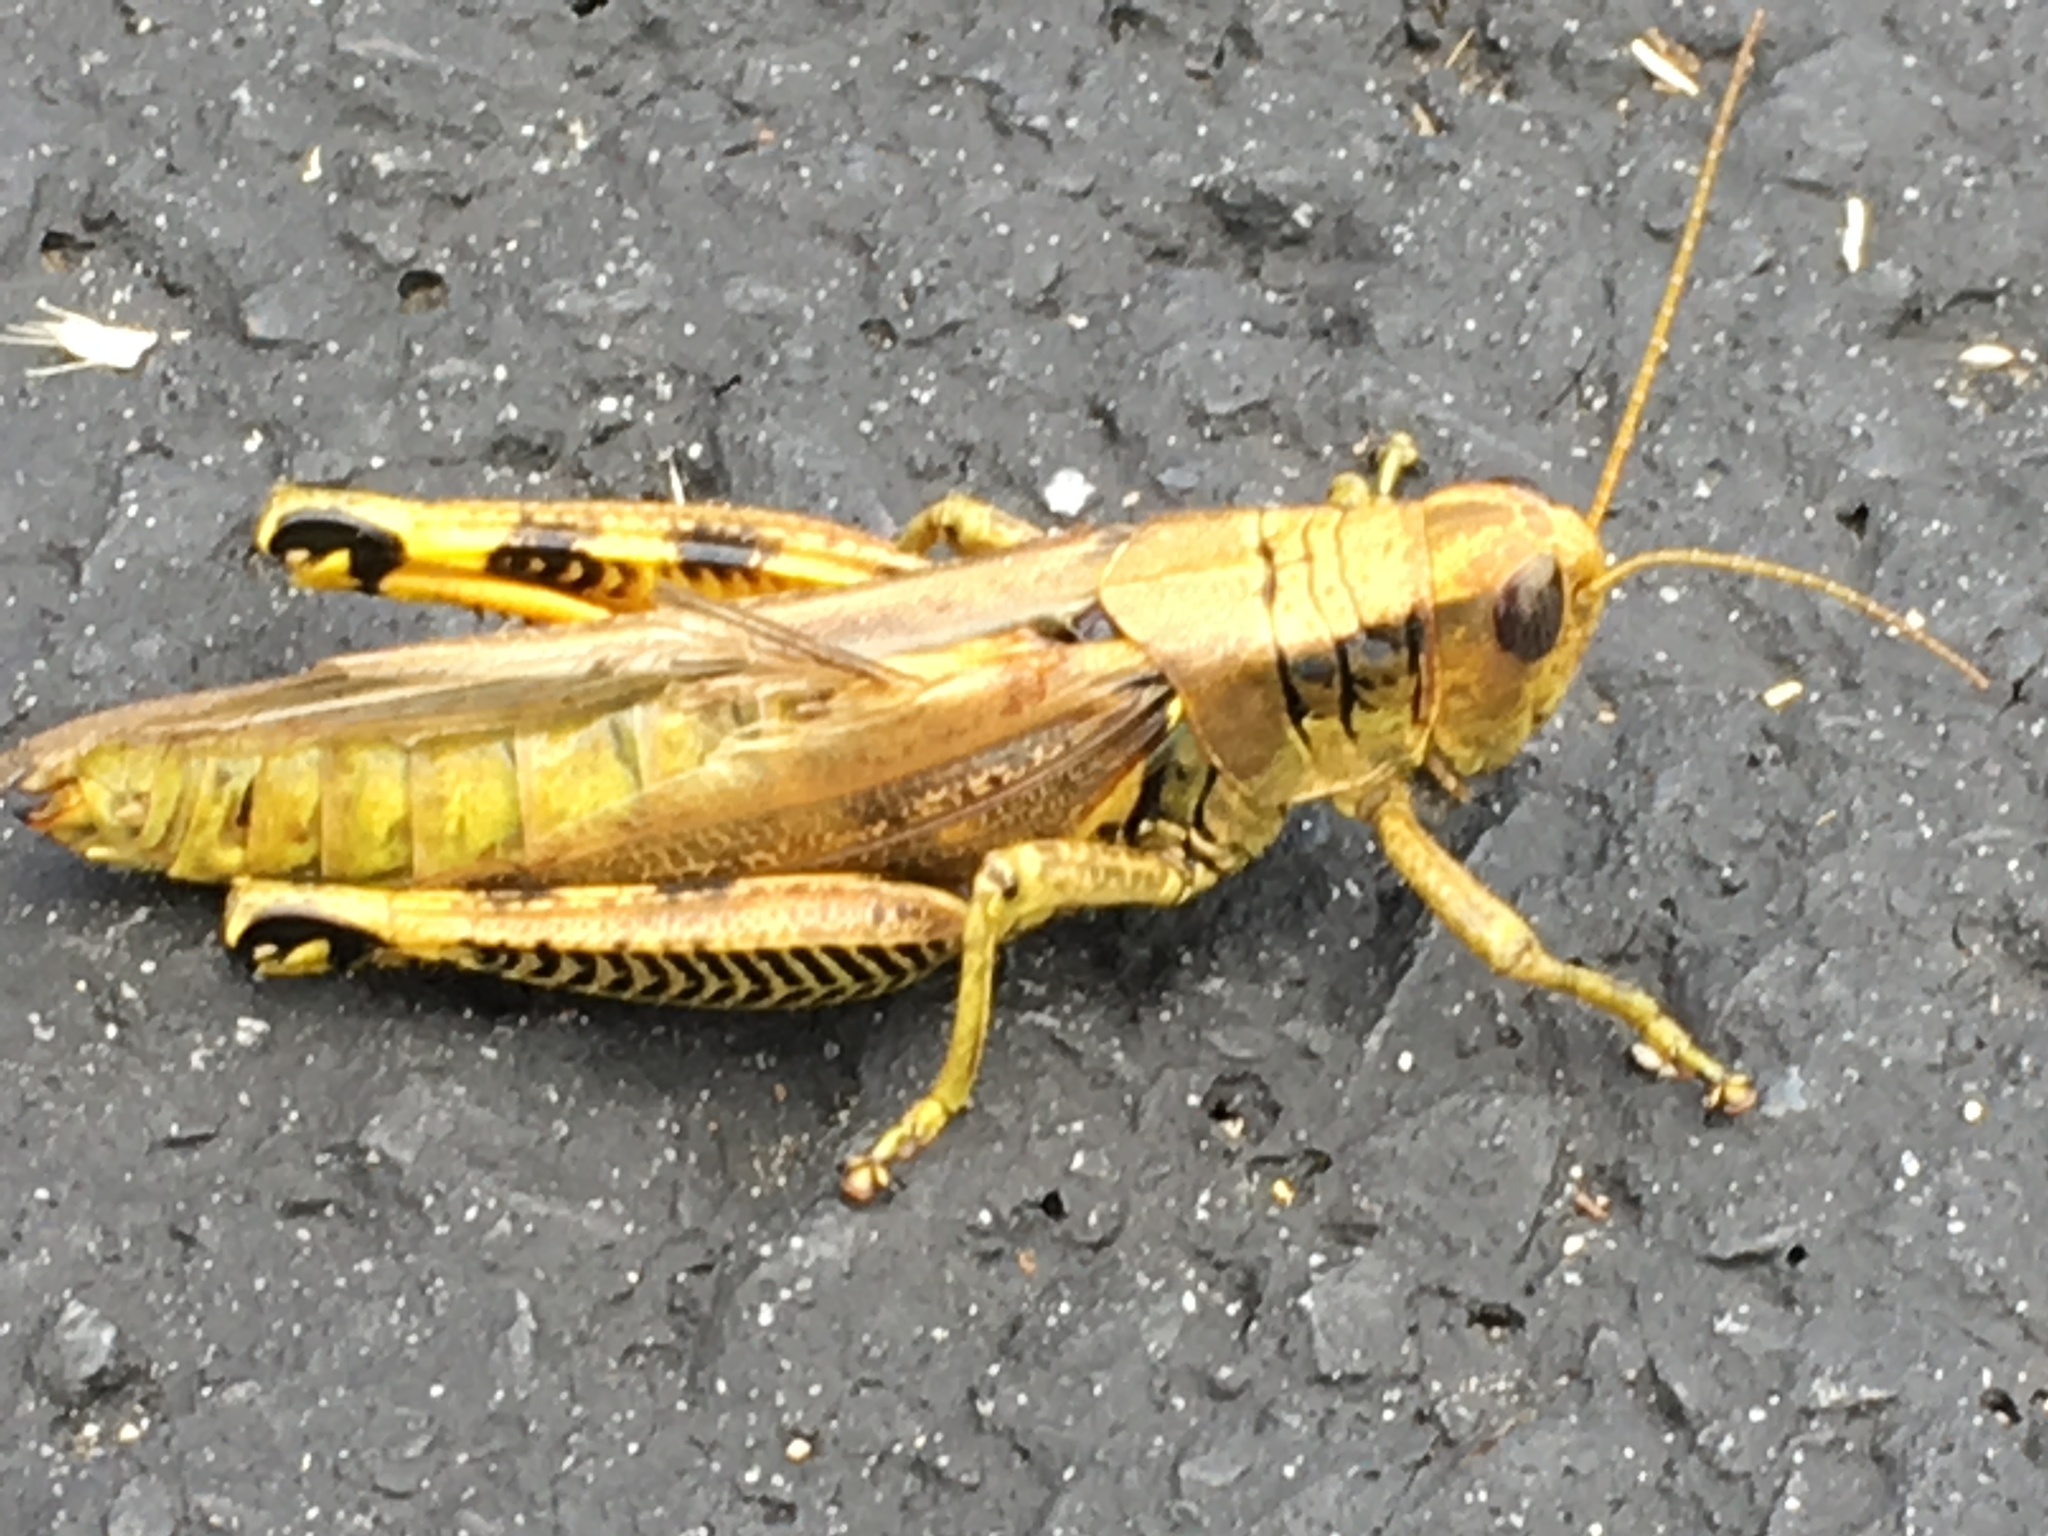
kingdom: Animalia
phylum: Arthropoda
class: Insecta
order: Orthoptera
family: Acrididae
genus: Melanoplus
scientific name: Melanoplus differentialis
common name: Differential grasshopper
